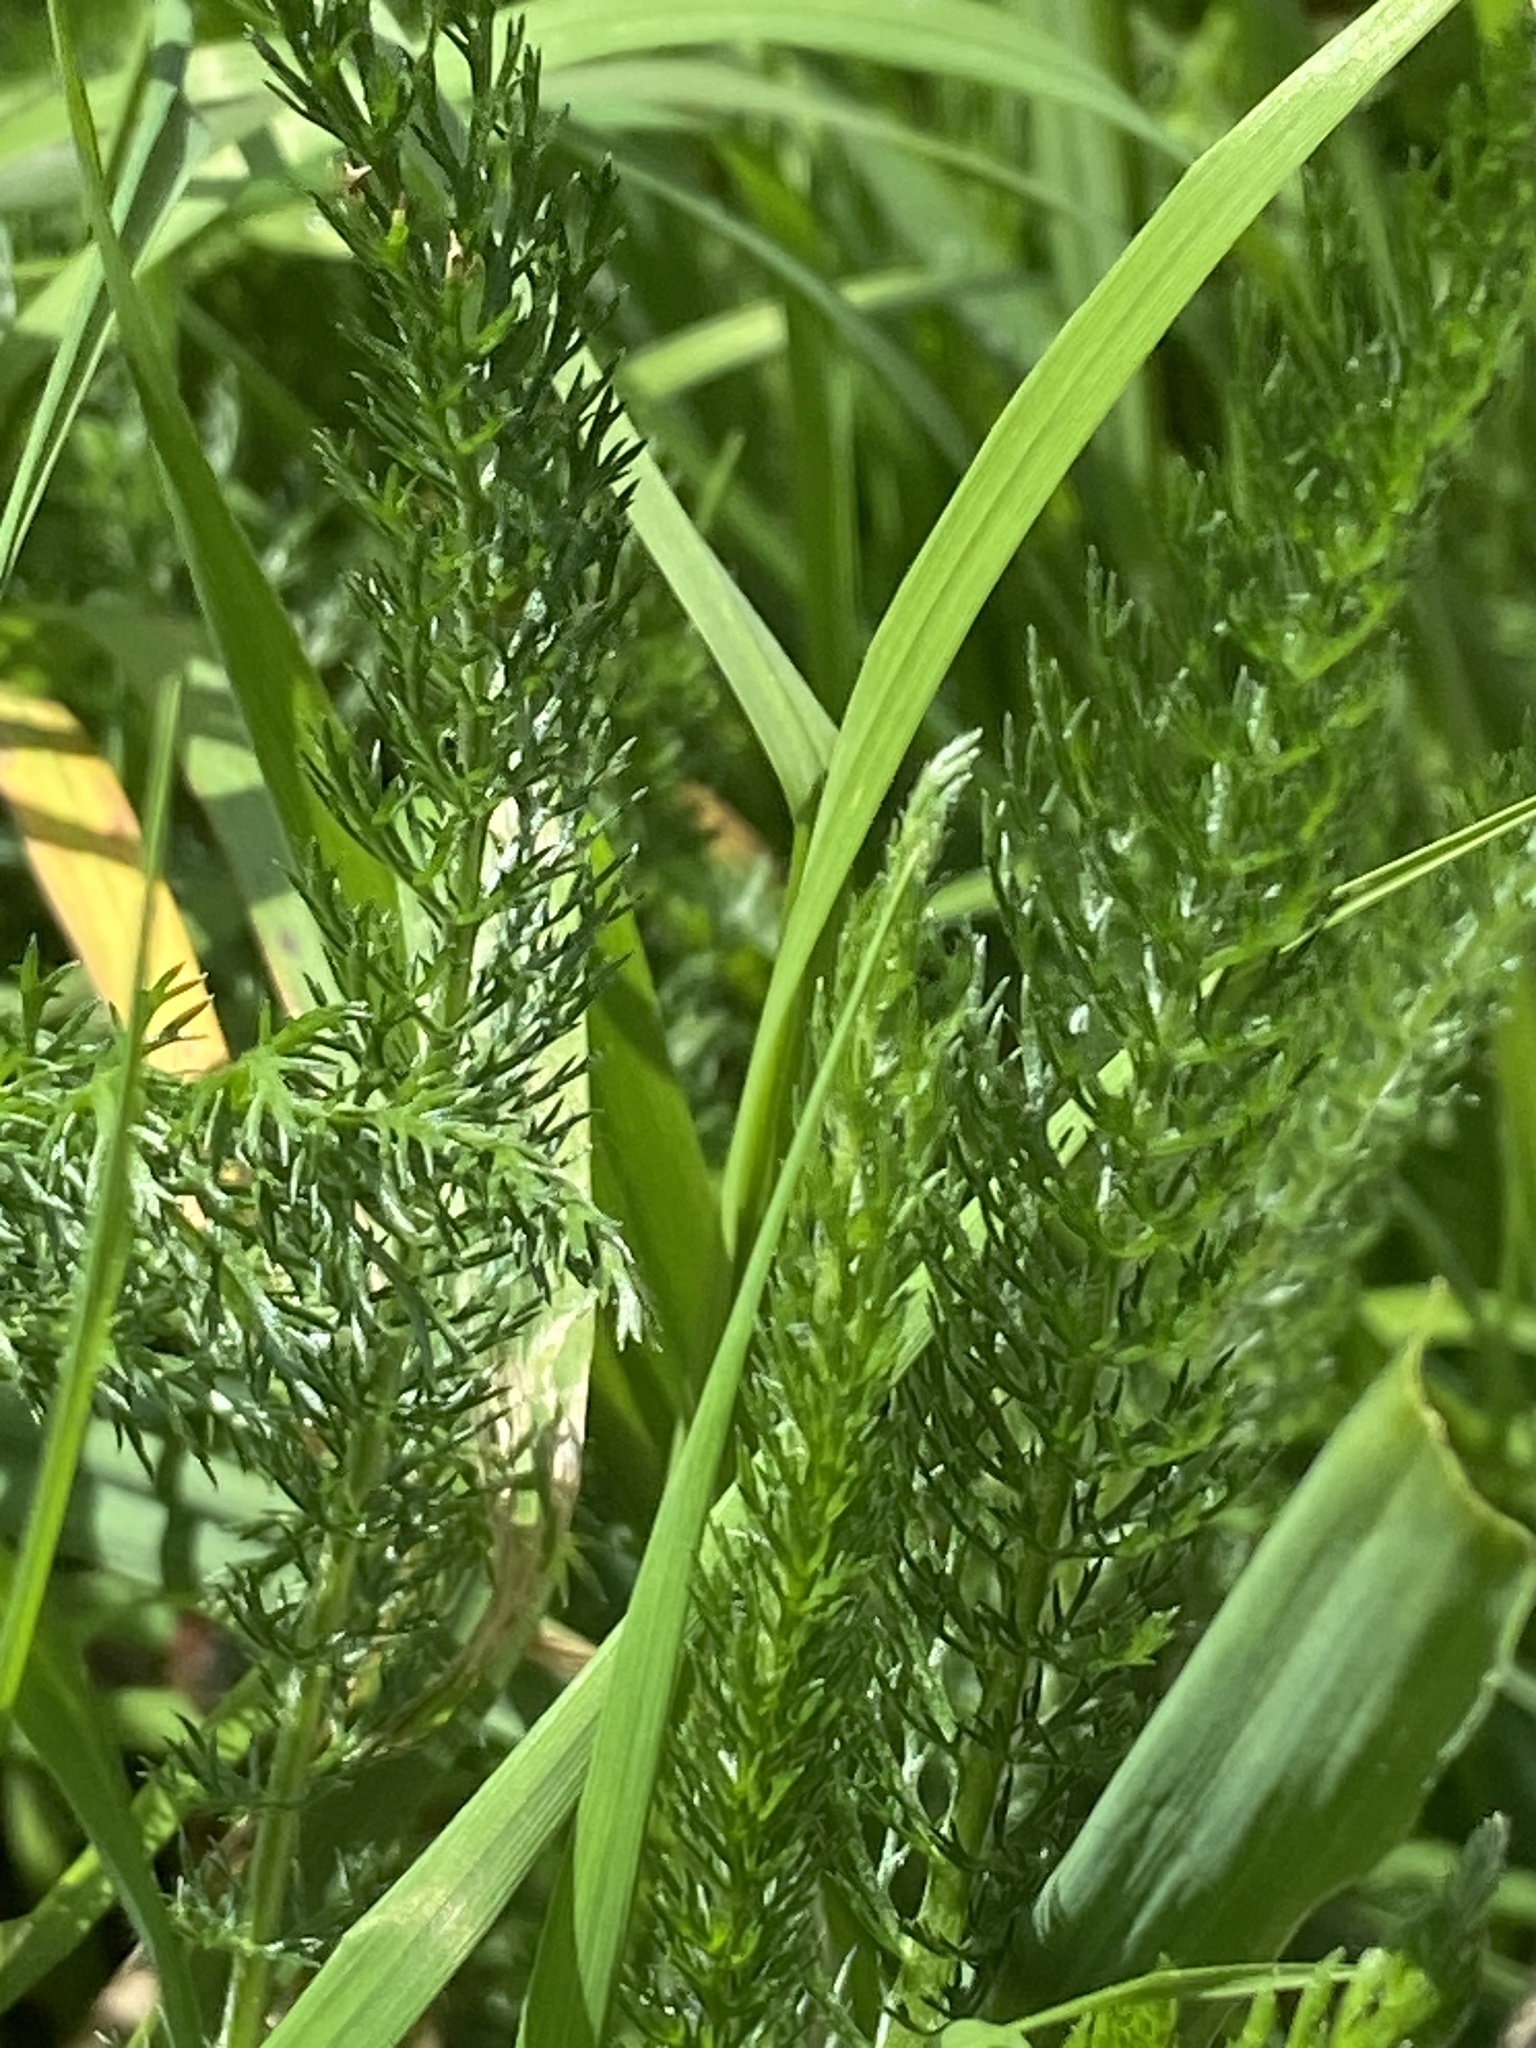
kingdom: Plantae
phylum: Tracheophyta
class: Magnoliopsida
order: Asterales
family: Asteraceae
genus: Achillea
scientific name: Achillea millefolium
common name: Yarrow
